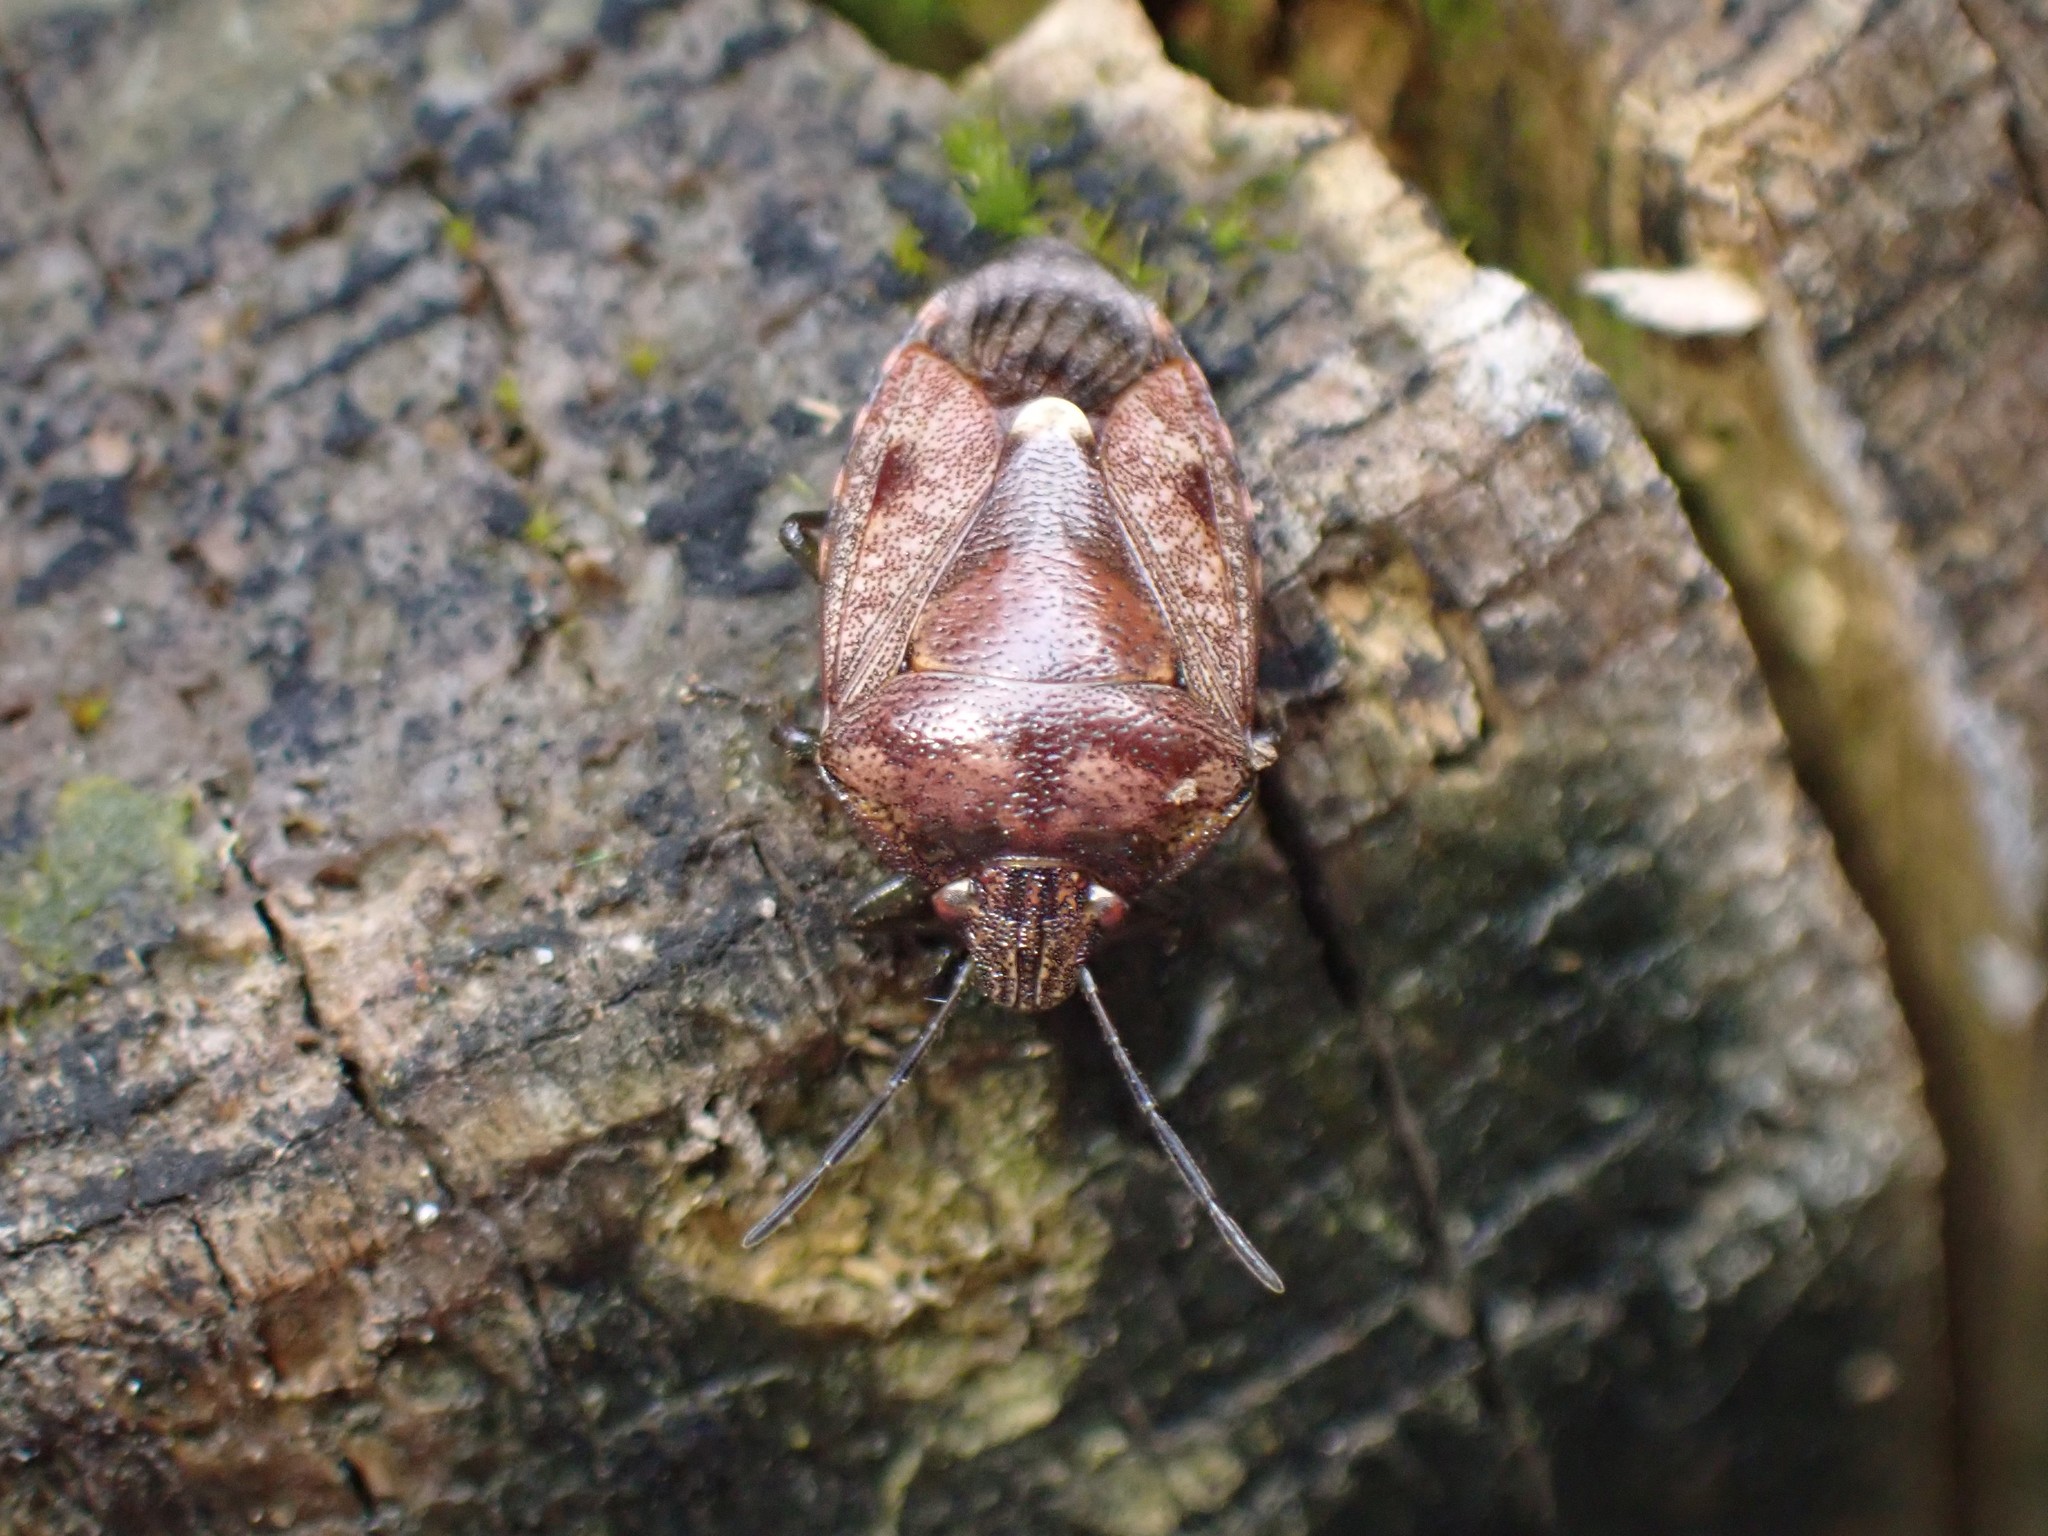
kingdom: Animalia
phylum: Arthropoda
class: Insecta
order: Hemiptera
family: Pentatomidae
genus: Banasa
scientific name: Banasa sordida
